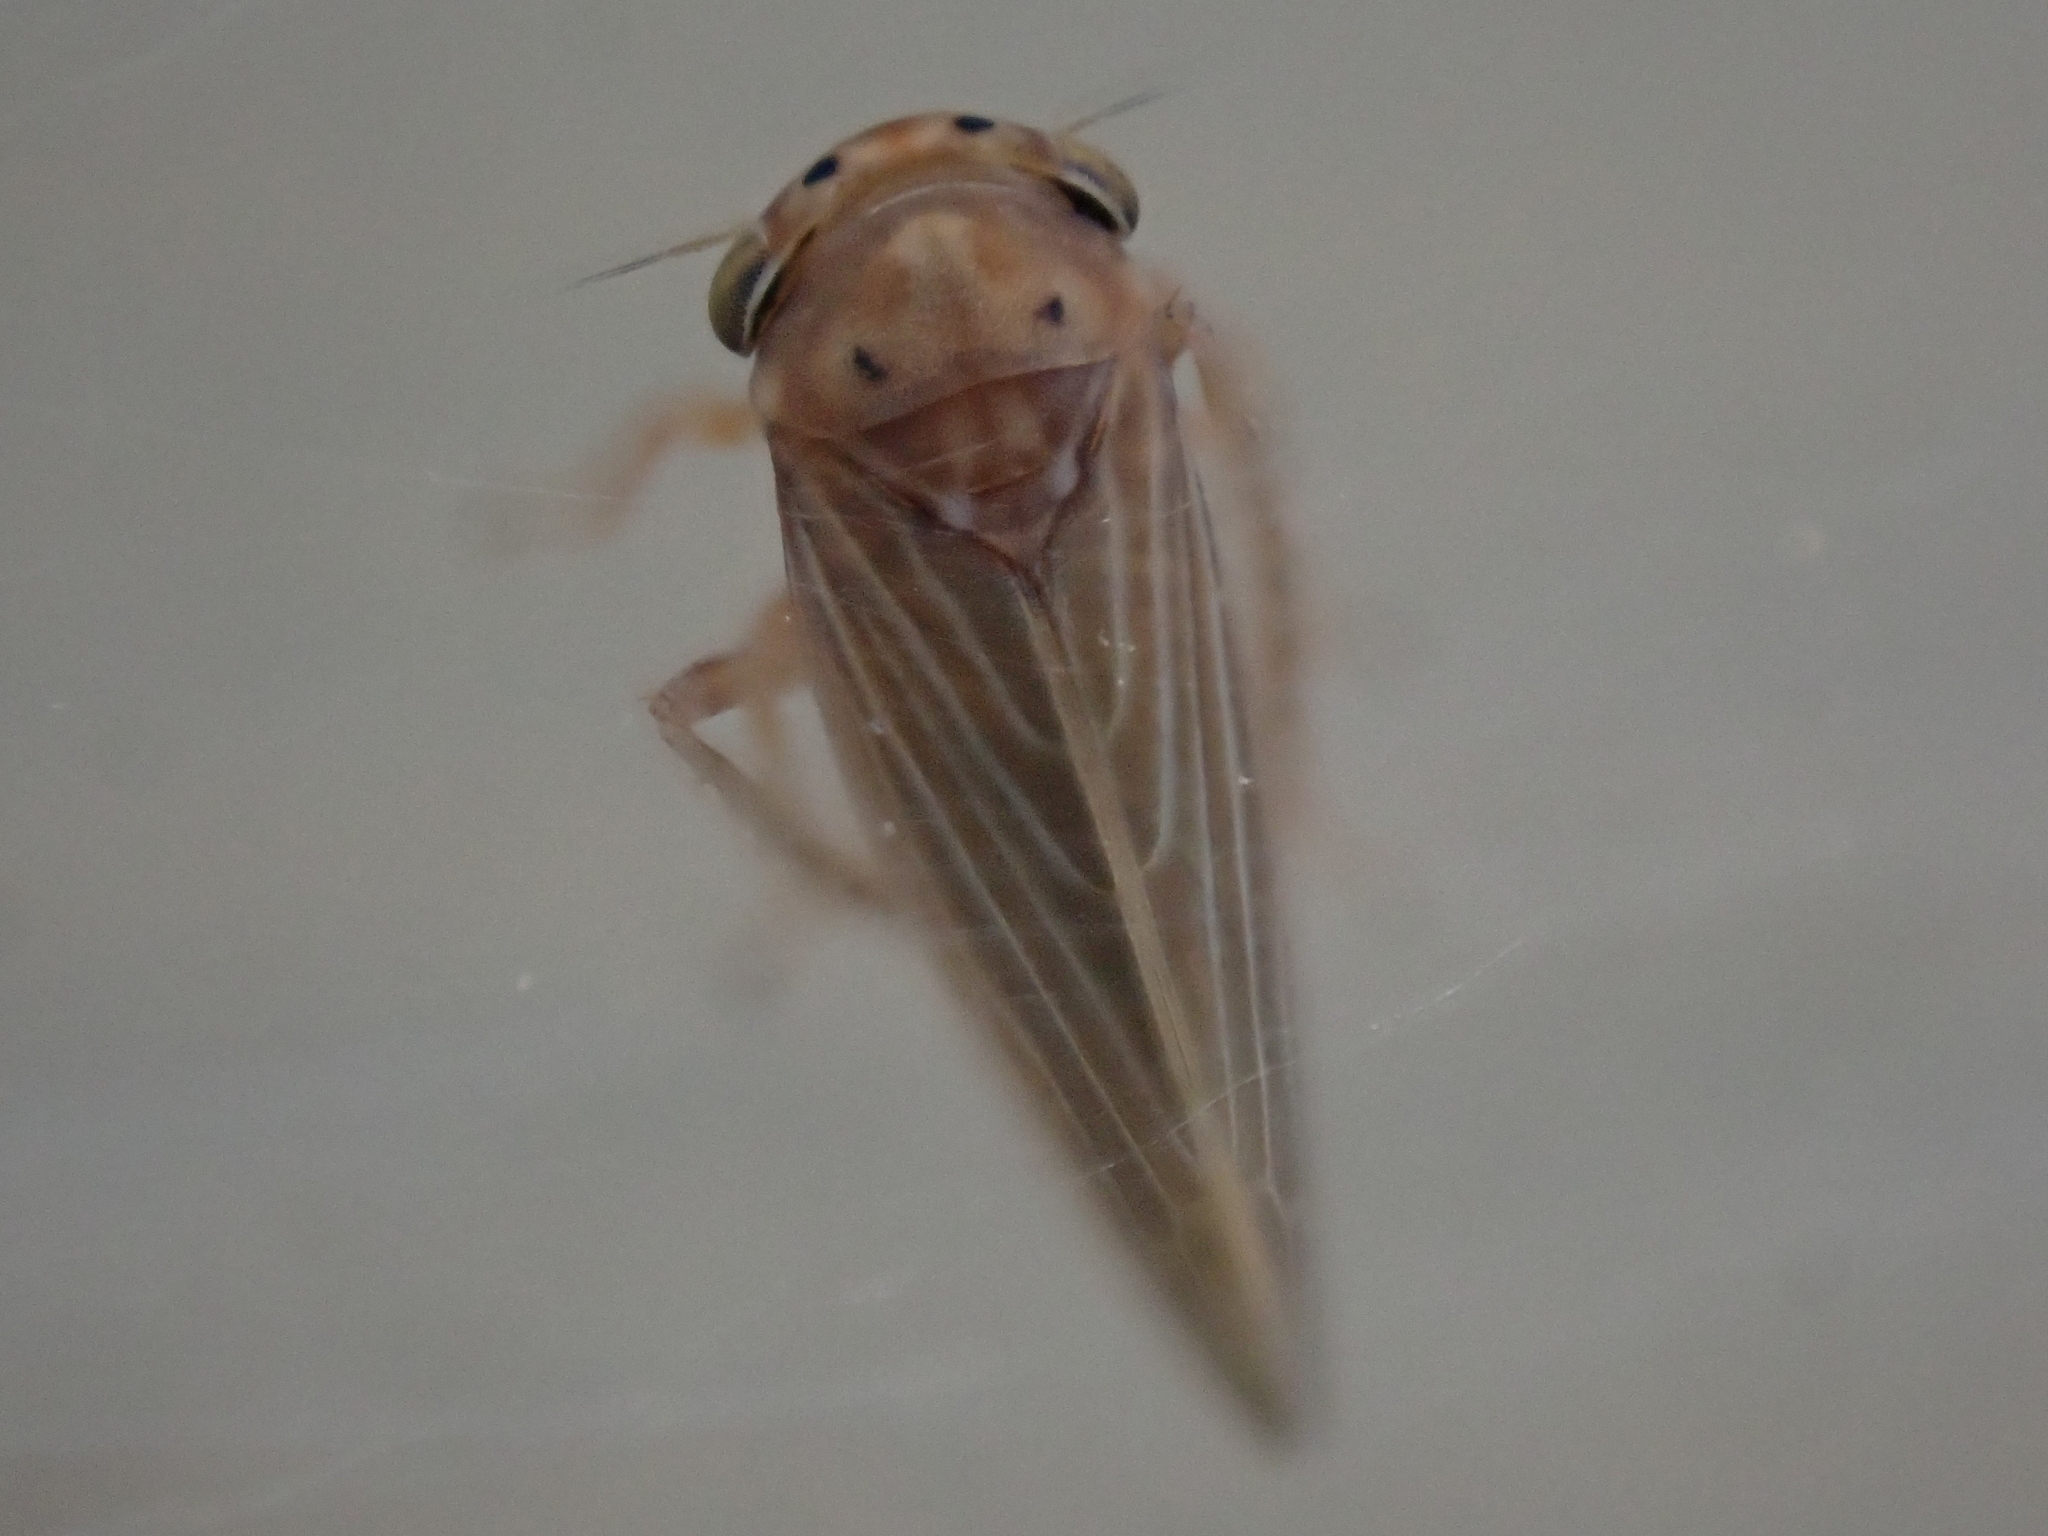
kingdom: Animalia
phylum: Arthropoda
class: Insecta
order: Hemiptera
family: Cicadellidae
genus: Agallia
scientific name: Agallia constricta
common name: The constricted leafhopper
